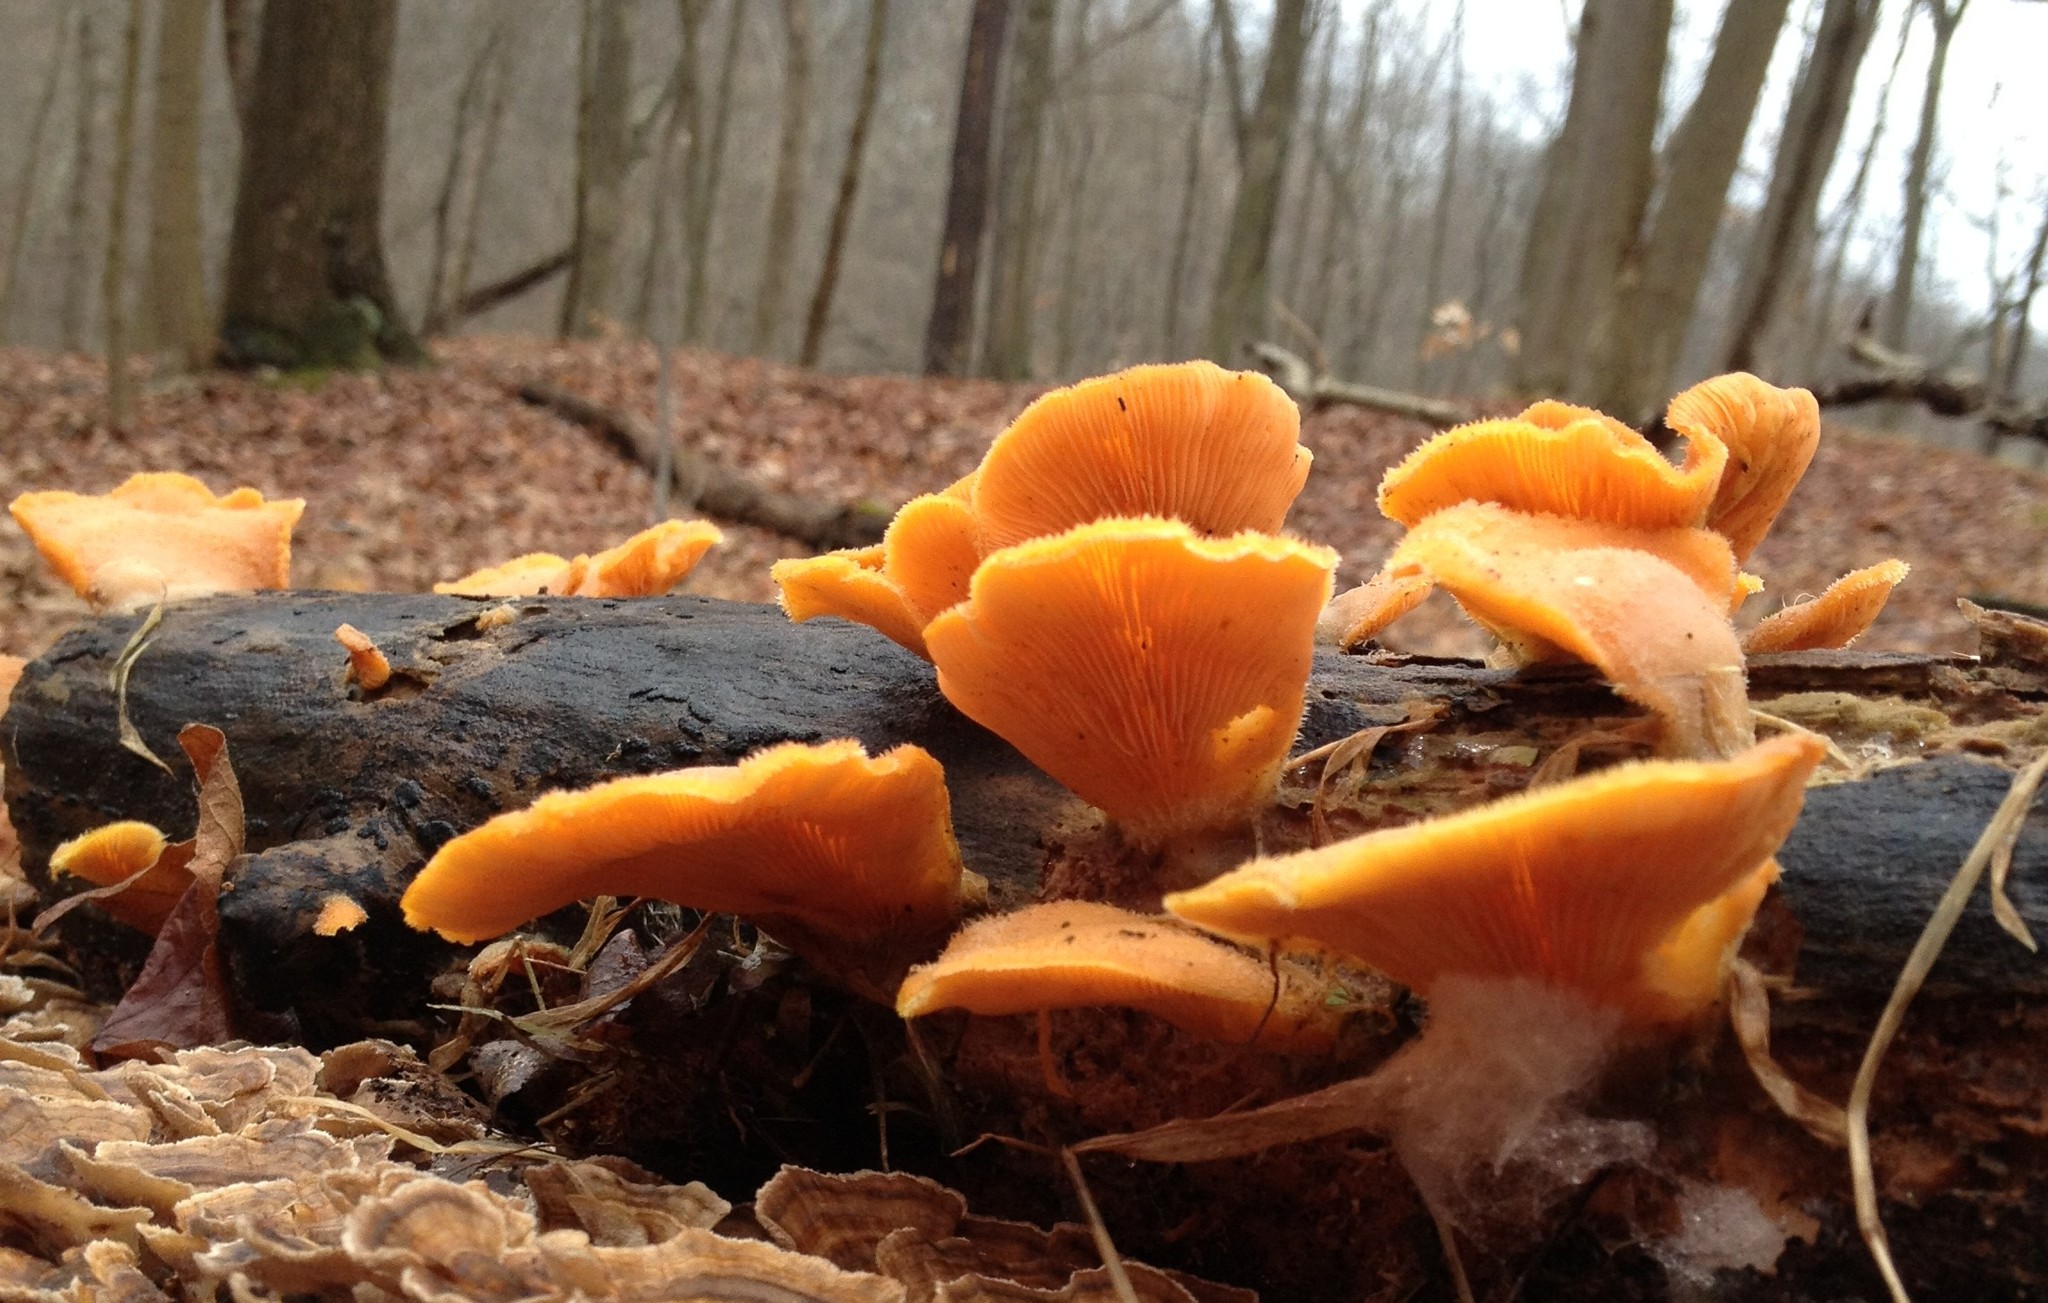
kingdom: Fungi
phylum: Basidiomycota
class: Agaricomycetes
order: Agaricales
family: Phyllotopsidaceae
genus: Phyllotopsis
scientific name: Phyllotopsis nidulans
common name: Orange mock oyster
